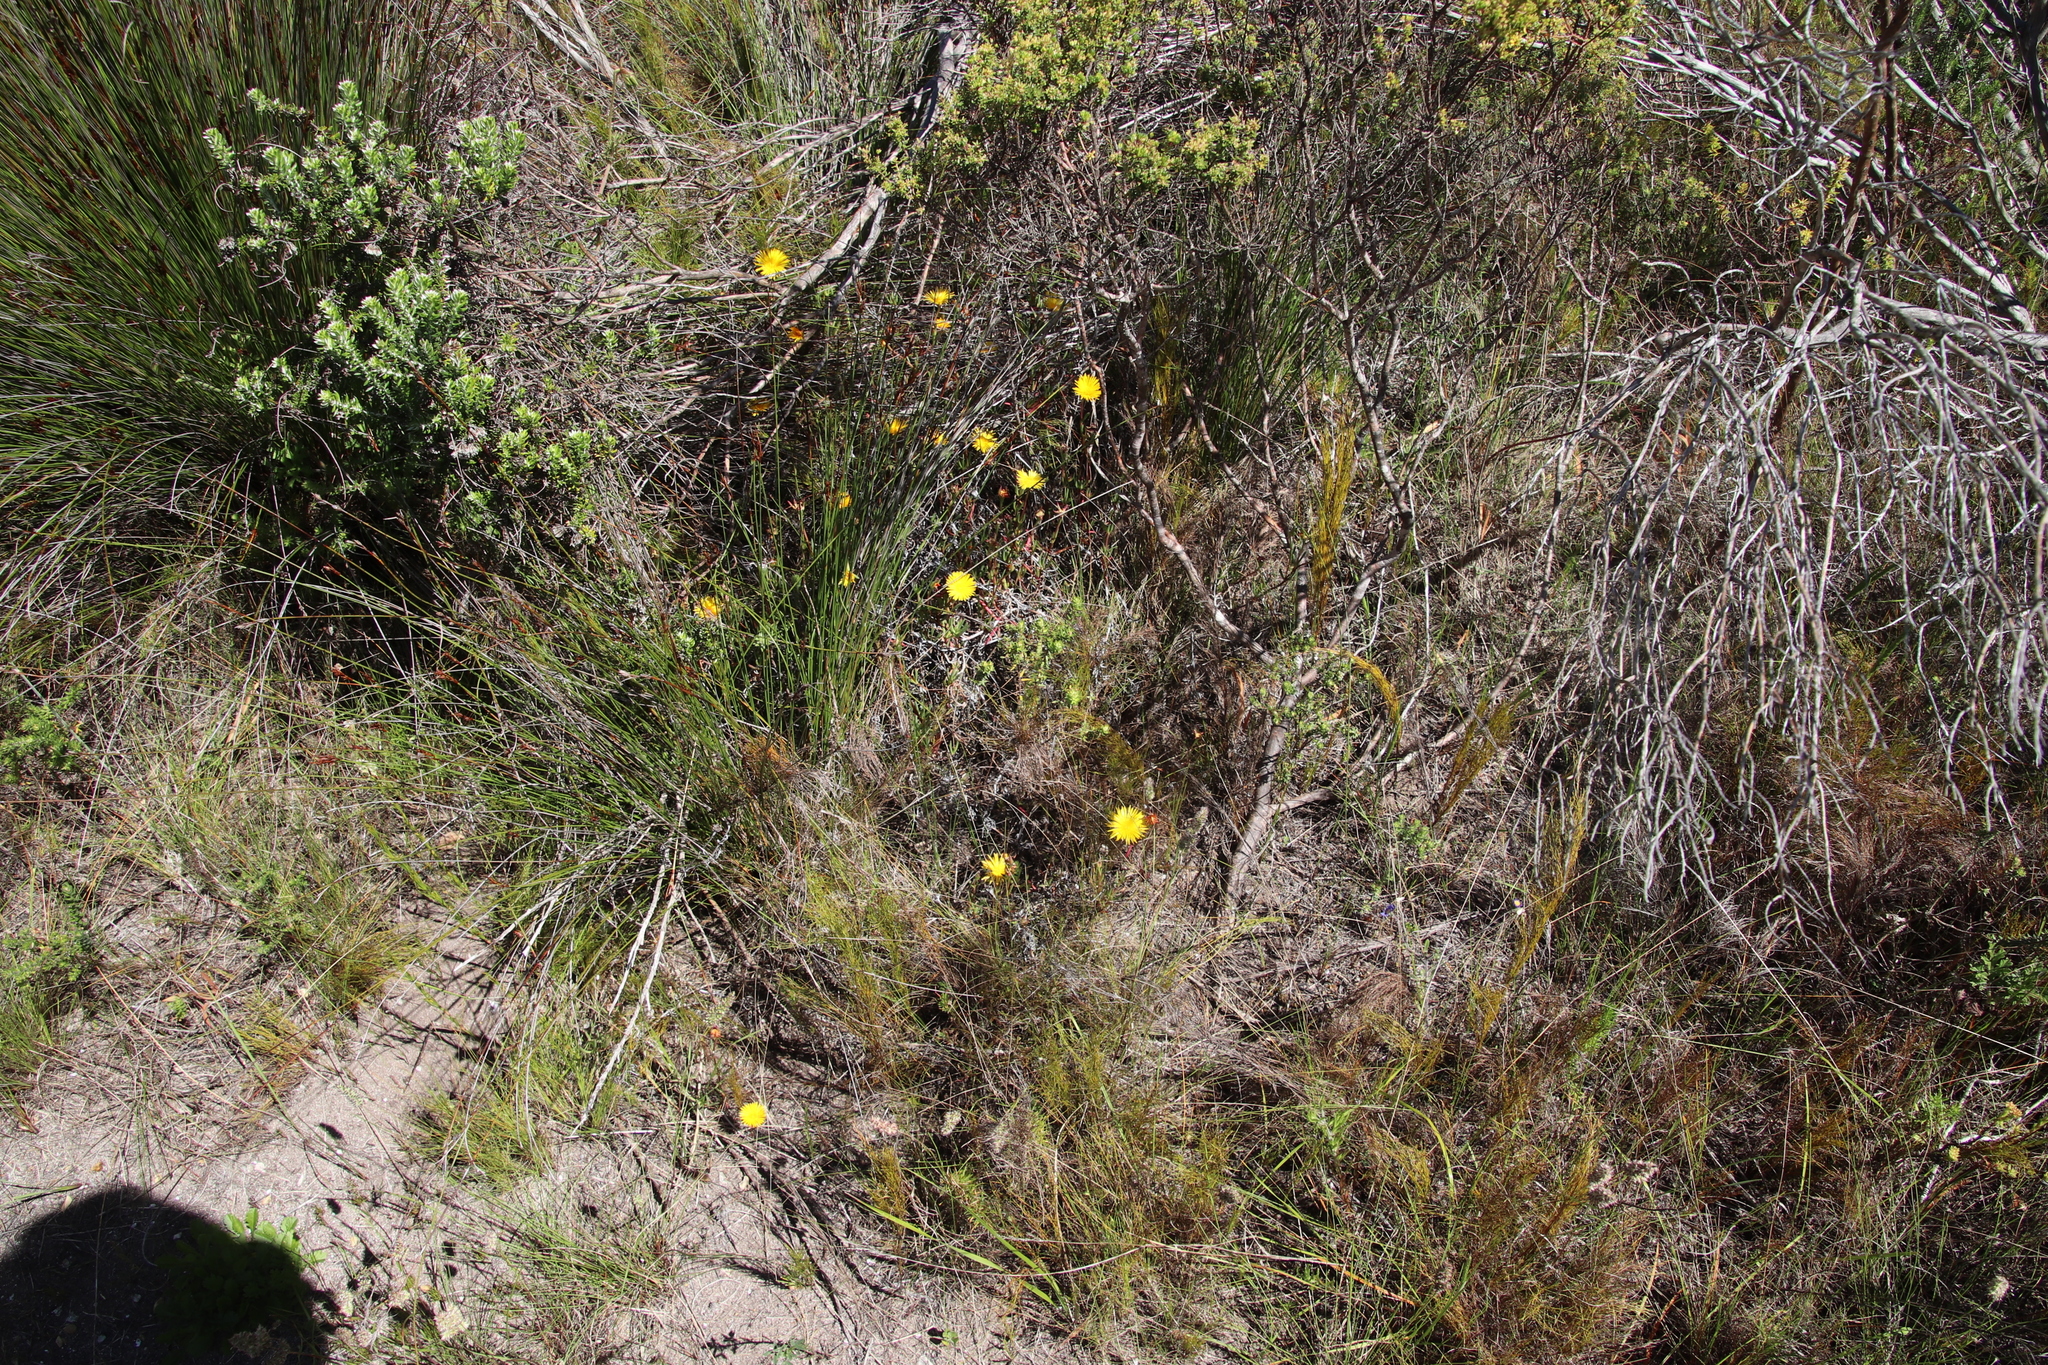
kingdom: Plantae
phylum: Tracheophyta
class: Magnoliopsida
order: Caryophyllales
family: Aizoaceae
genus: Lampranthus
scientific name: Lampranthus bicolor
